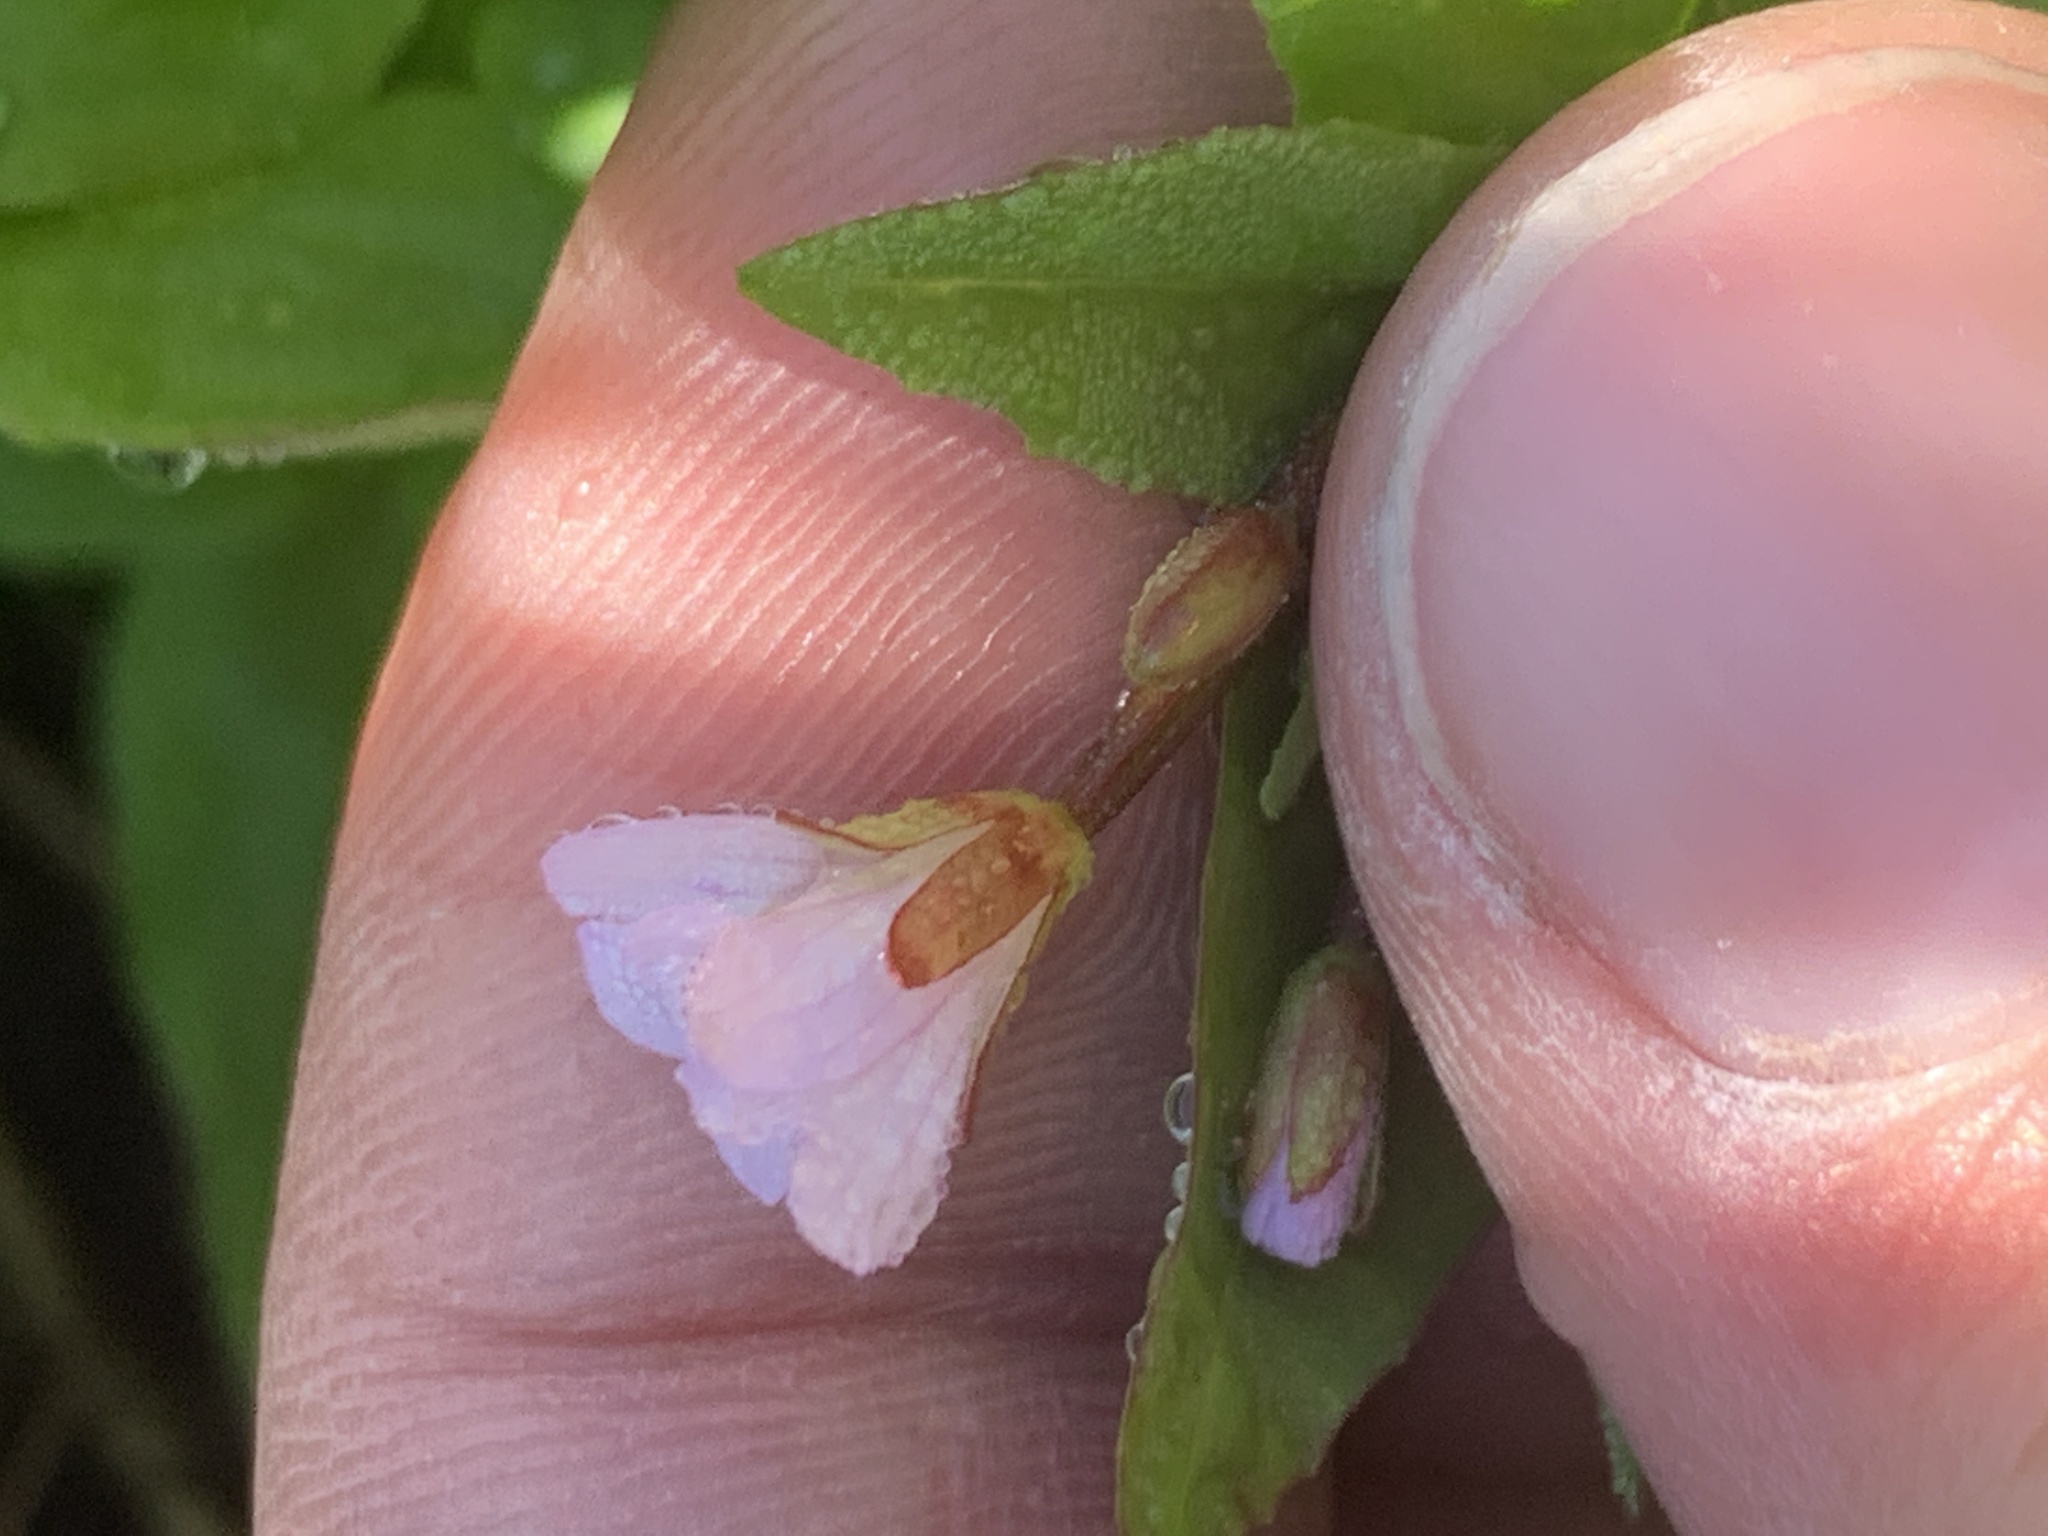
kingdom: Plantae
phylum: Tracheophyta
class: Magnoliopsida
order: Myrtales
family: Onagraceae
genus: Epilobium
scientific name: Epilobium hornemannii
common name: Hornemann's willowherb
